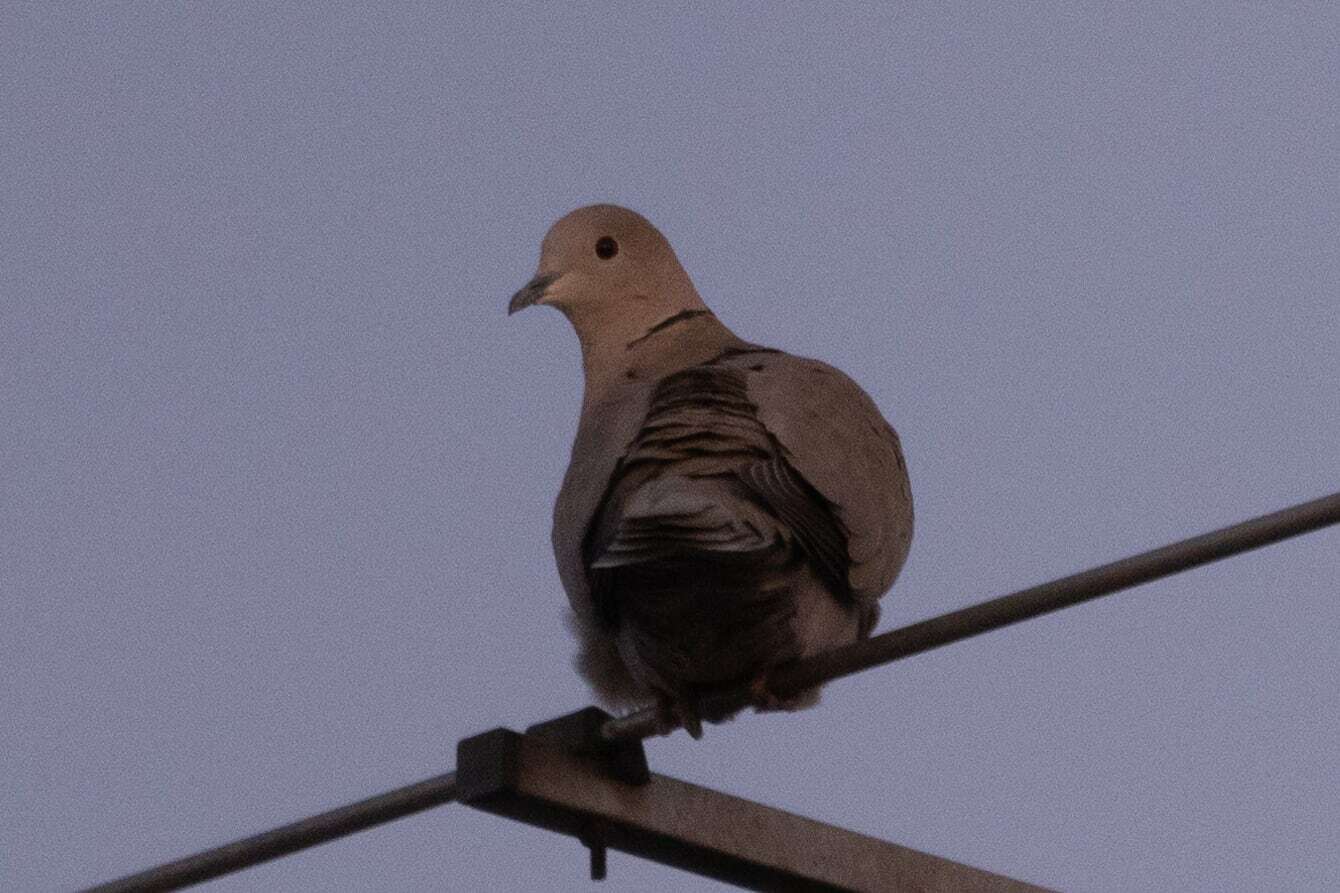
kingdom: Animalia
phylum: Chordata
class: Aves
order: Columbiformes
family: Columbidae
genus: Streptopelia
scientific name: Streptopelia decaocto
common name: Eurasian collared dove
